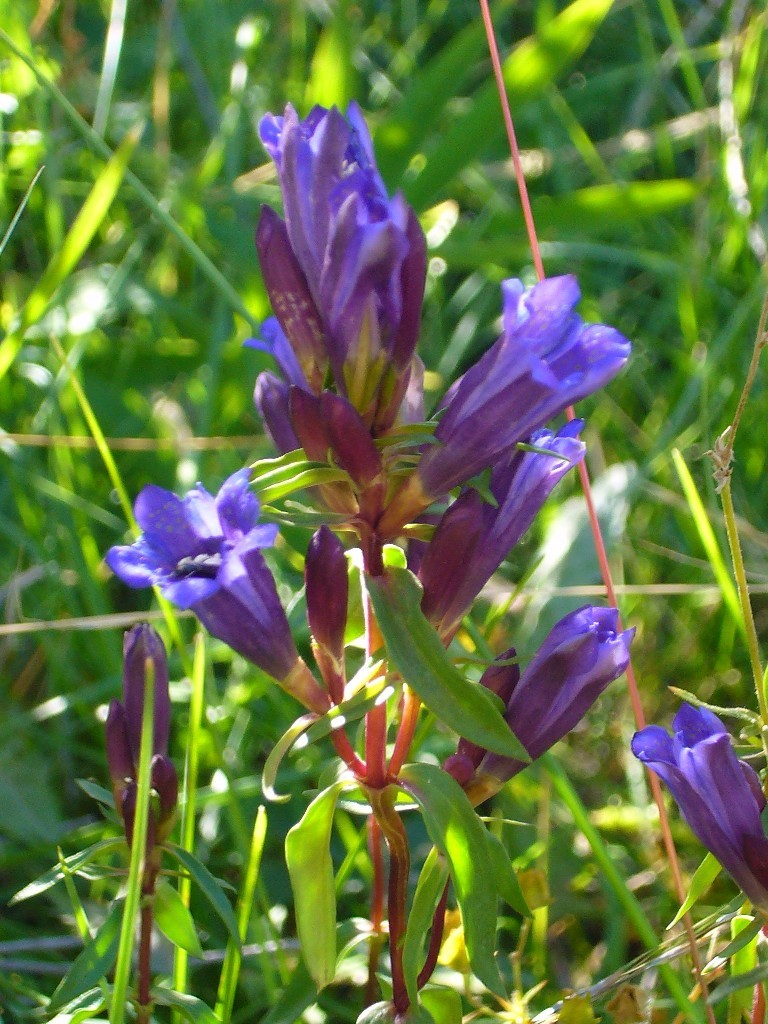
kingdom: Plantae
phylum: Tracheophyta
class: Magnoliopsida
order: Gentianales
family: Gentianaceae
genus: Gentiana
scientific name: Gentiana affinis
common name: Rocky mountain gentian
